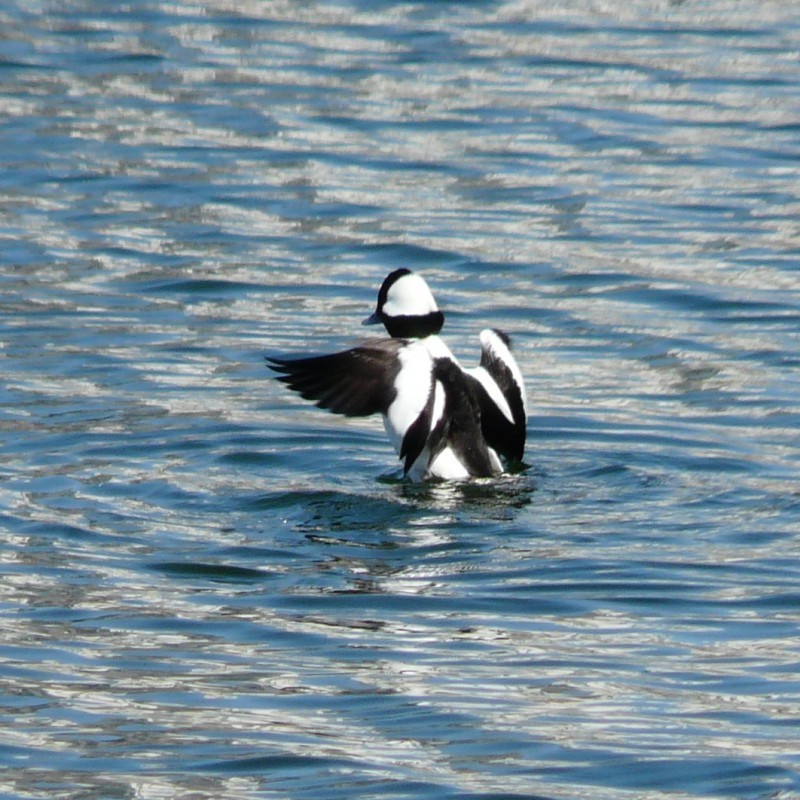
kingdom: Animalia
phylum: Chordata
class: Aves
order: Anseriformes
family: Anatidae
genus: Bucephala
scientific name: Bucephala albeola
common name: Bufflehead
